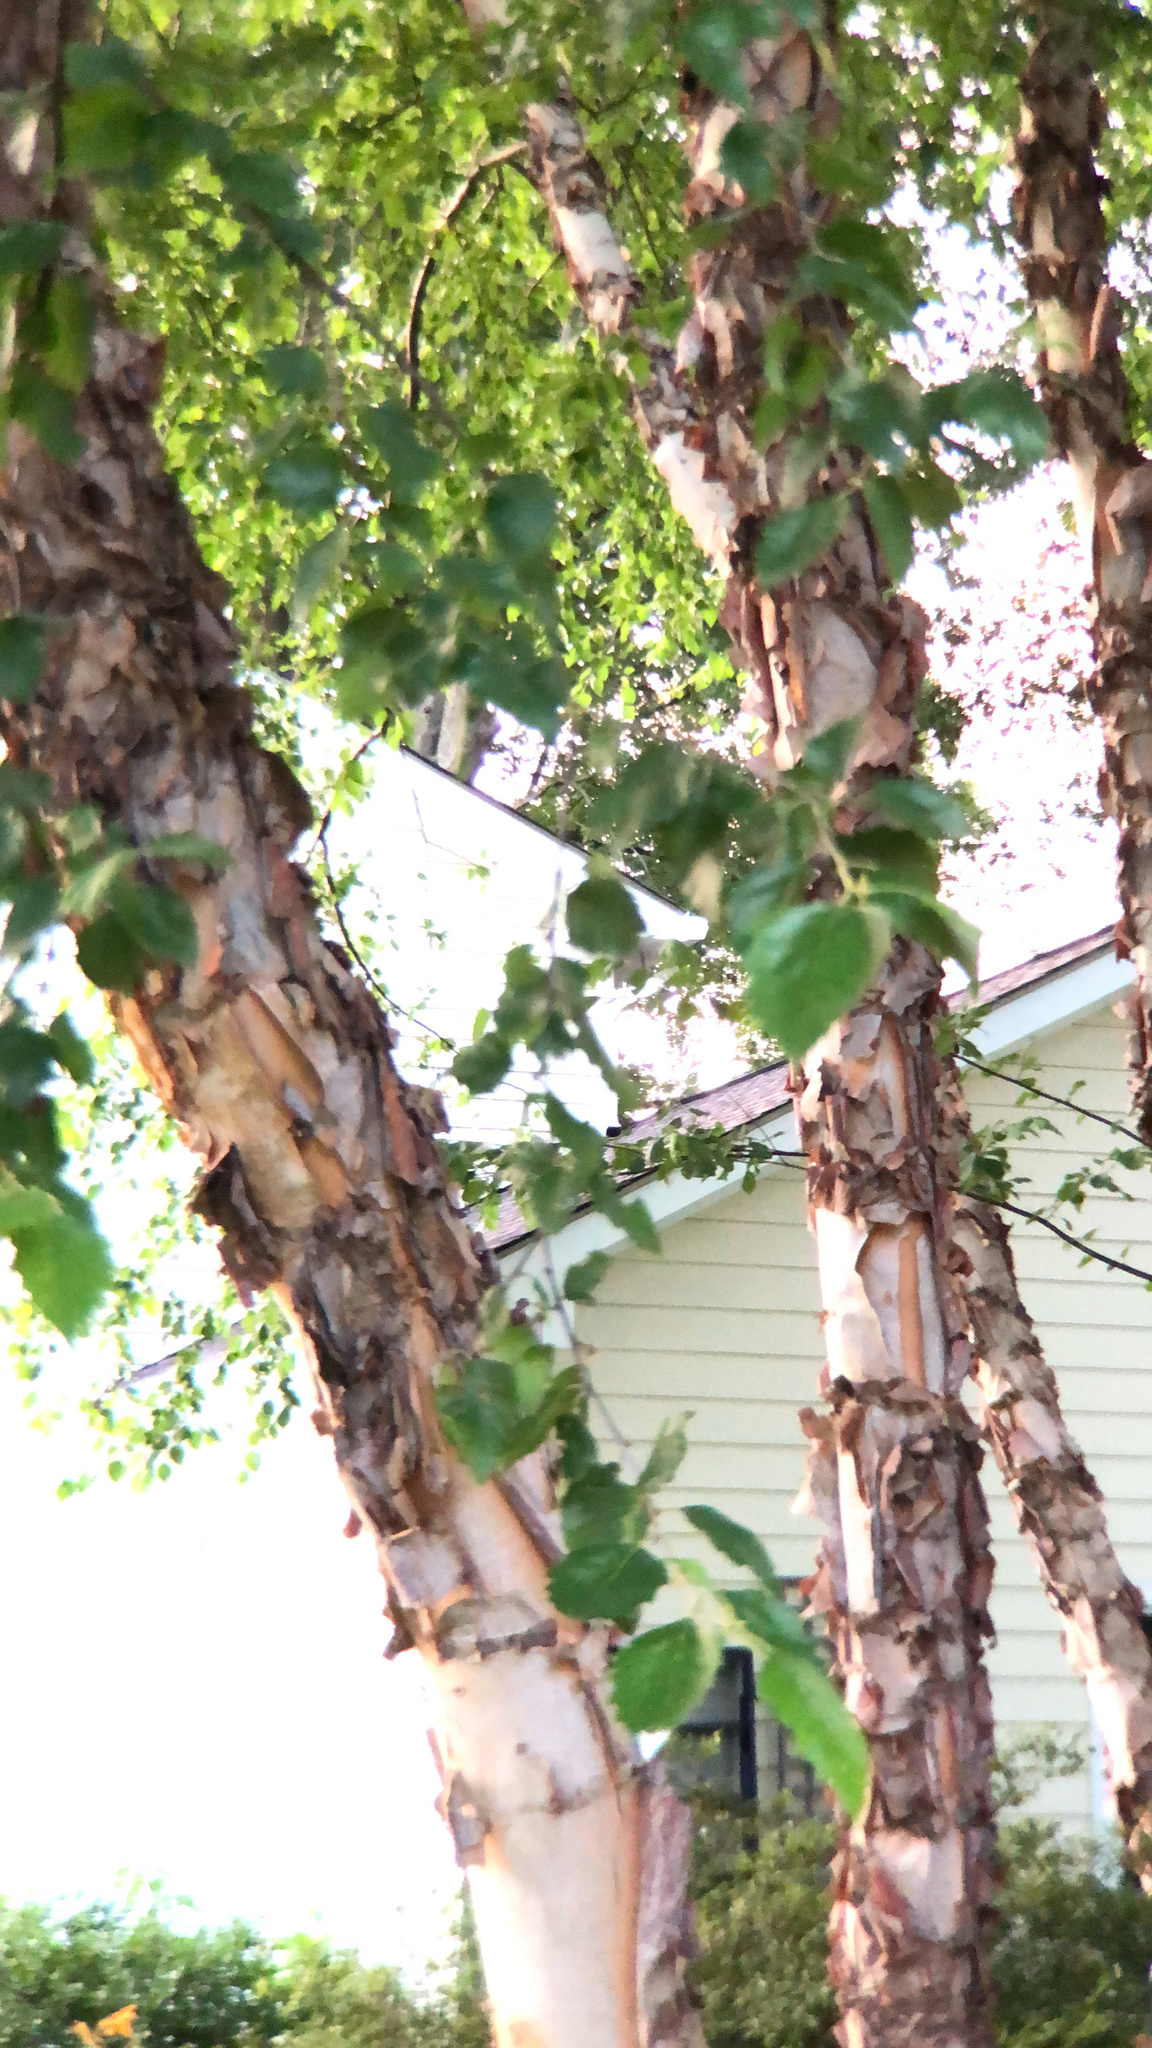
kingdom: Plantae
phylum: Tracheophyta
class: Magnoliopsida
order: Fagales
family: Betulaceae
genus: Betula
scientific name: Betula nigra
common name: Black birch
